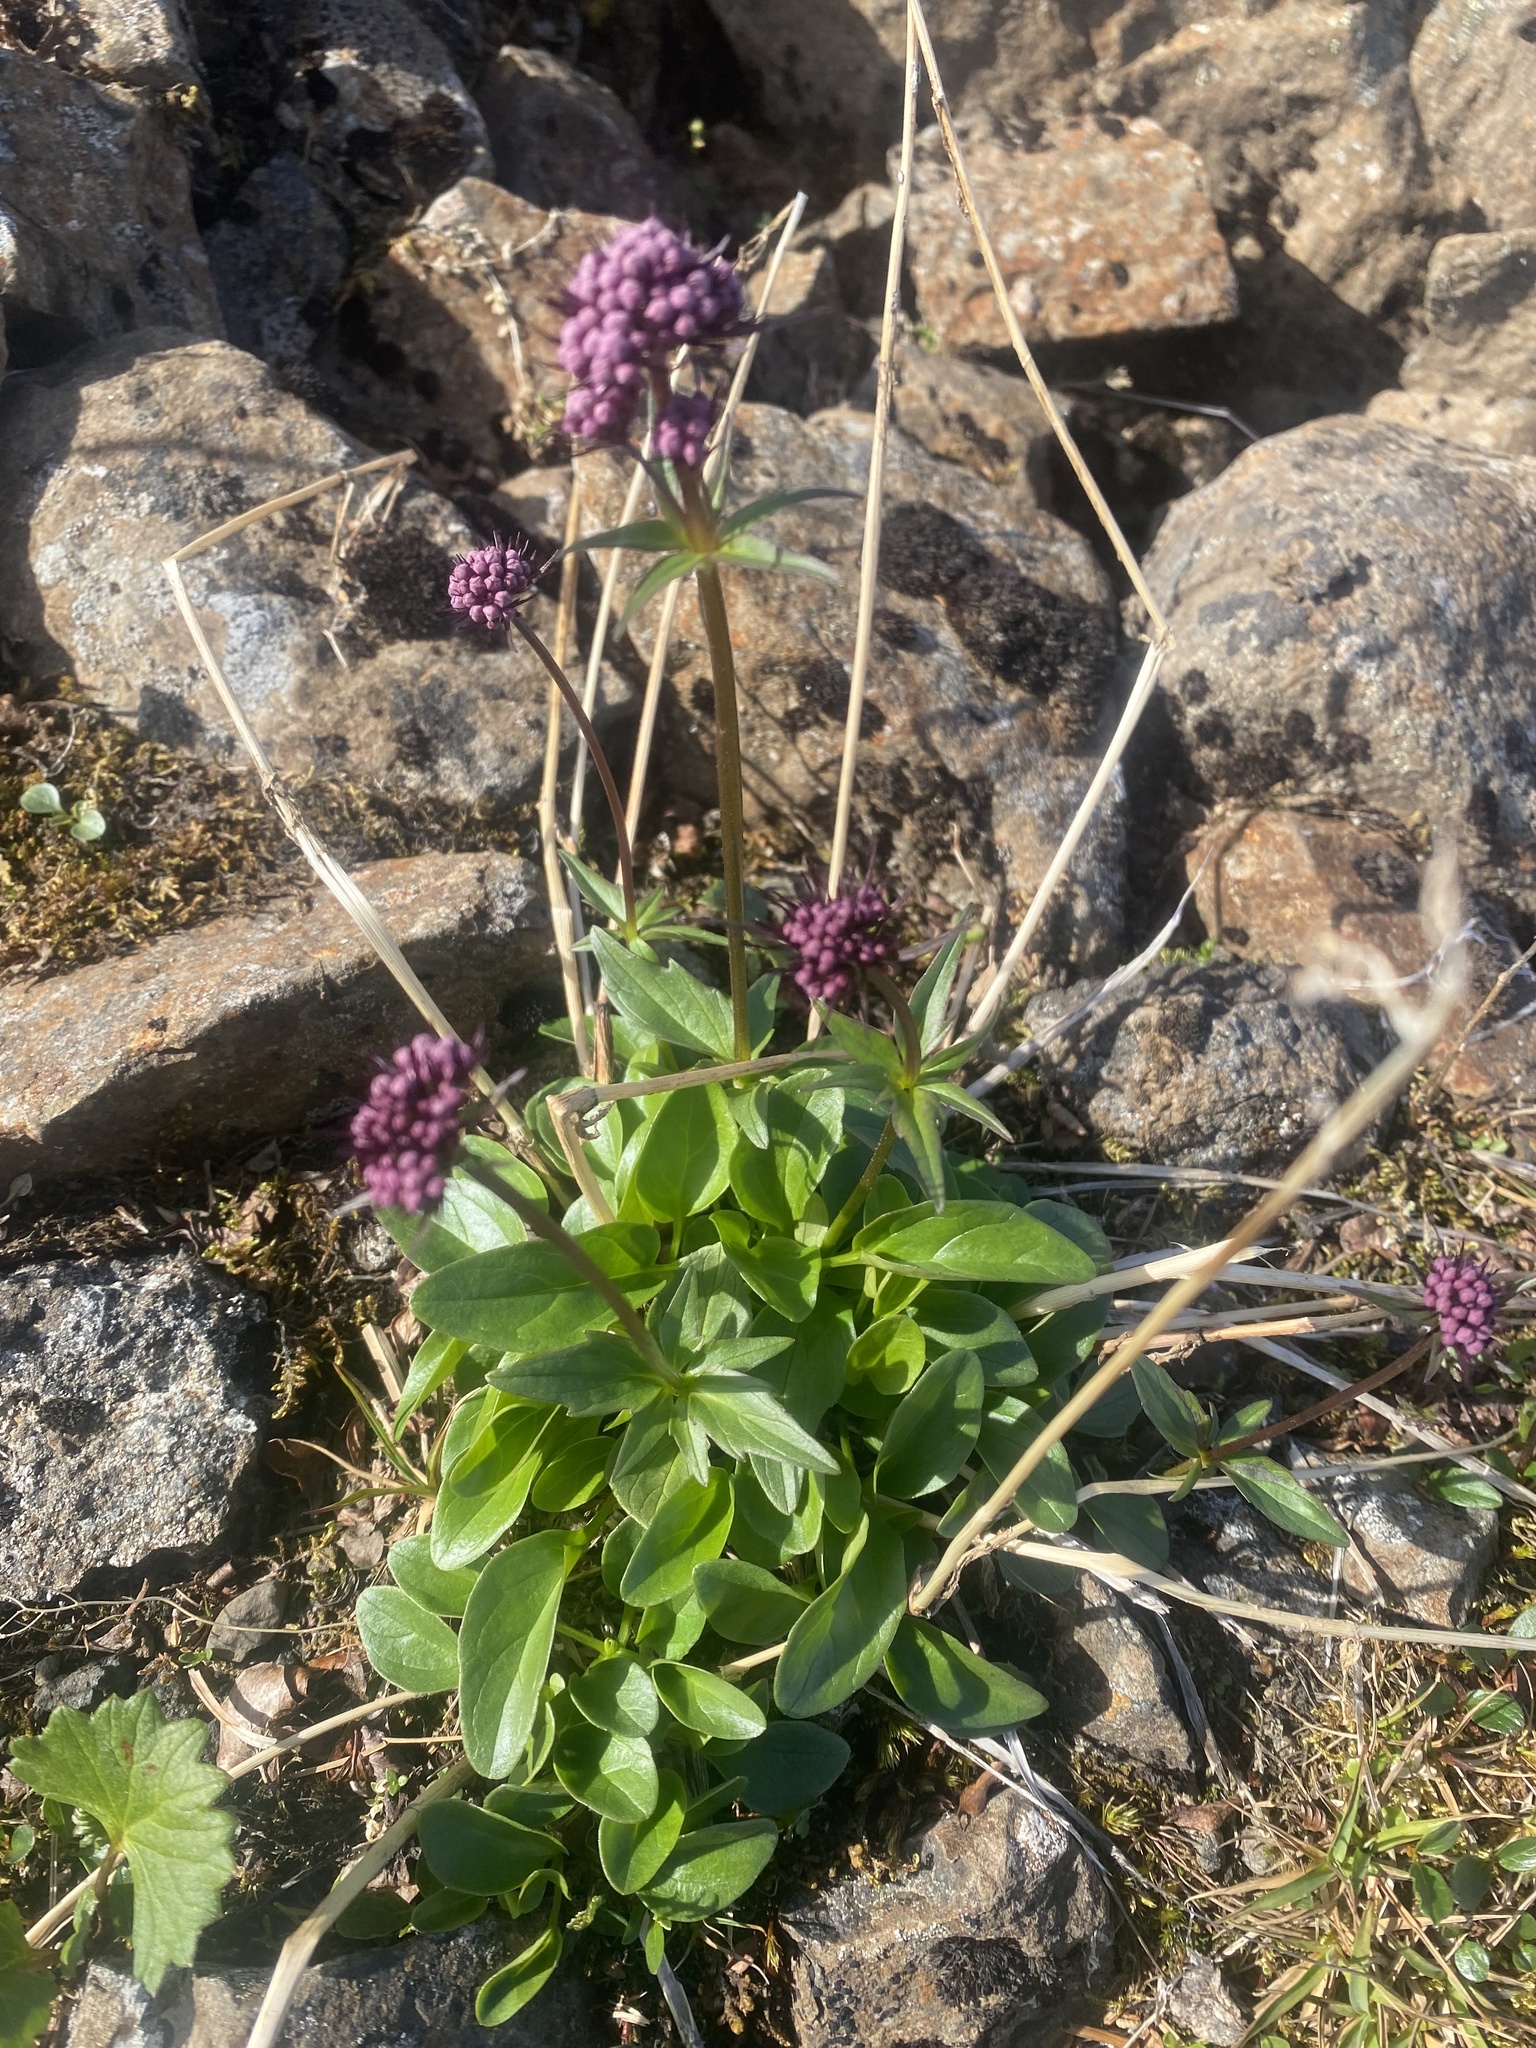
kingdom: Plantae
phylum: Tracheophyta
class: Magnoliopsida
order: Dipsacales
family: Caprifoliaceae
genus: Valeriana
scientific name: Valeriana capitata
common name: Capitate valerian
